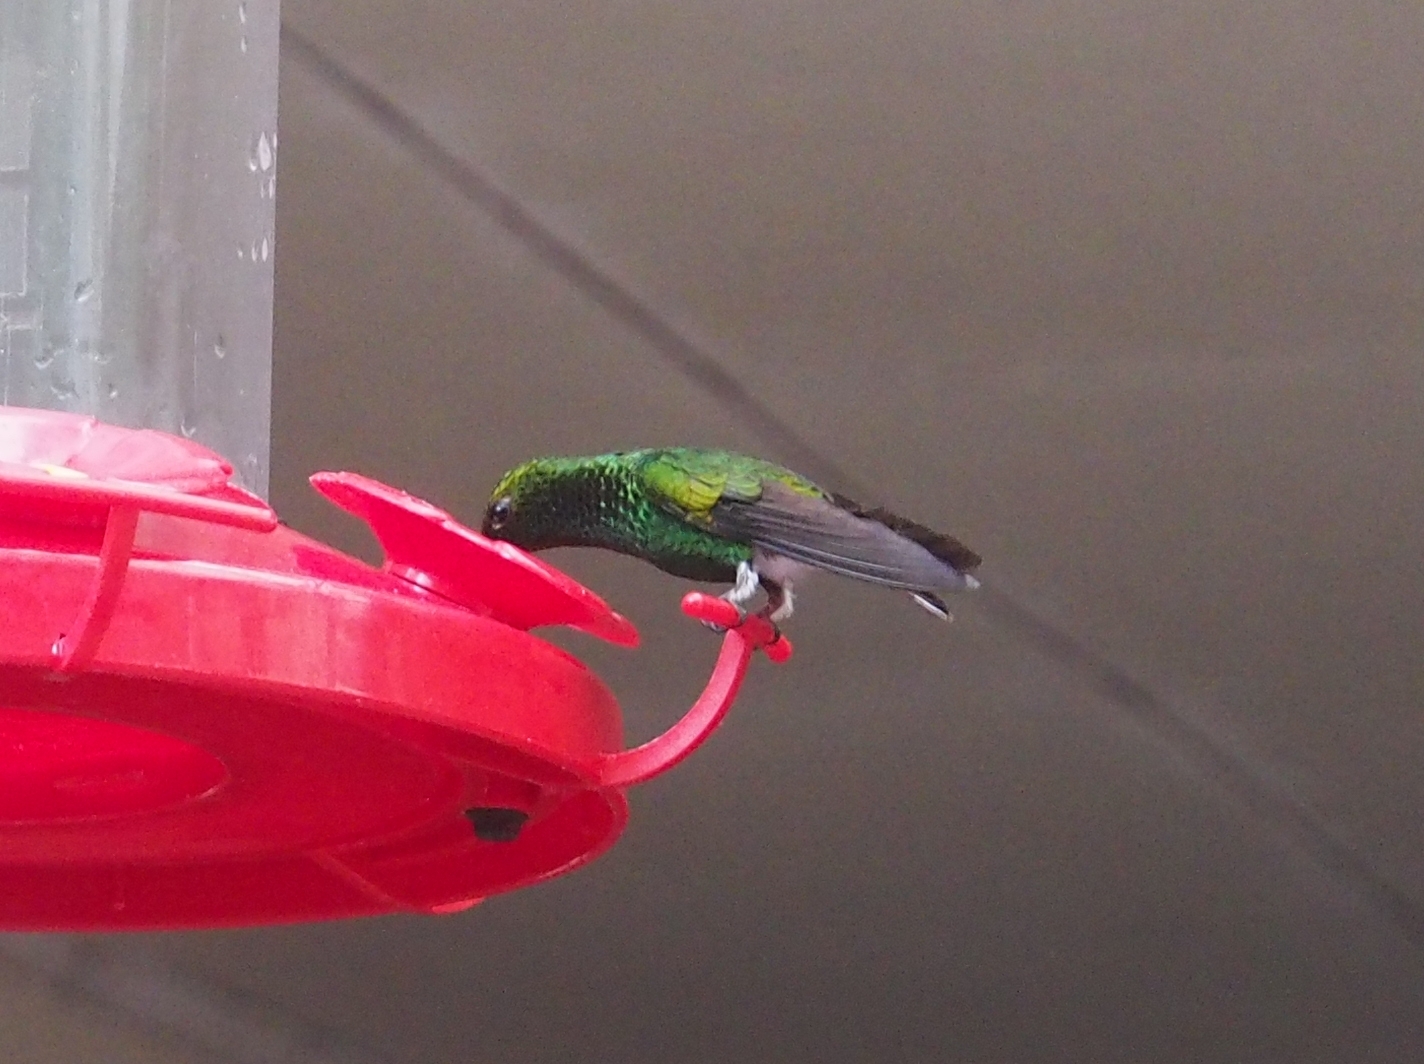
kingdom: Animalia
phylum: Chordata
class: Aves
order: Apodiformes
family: Trochilidae
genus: Microchera
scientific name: Microchera cupreiceps
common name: Coppery-headed emerald
